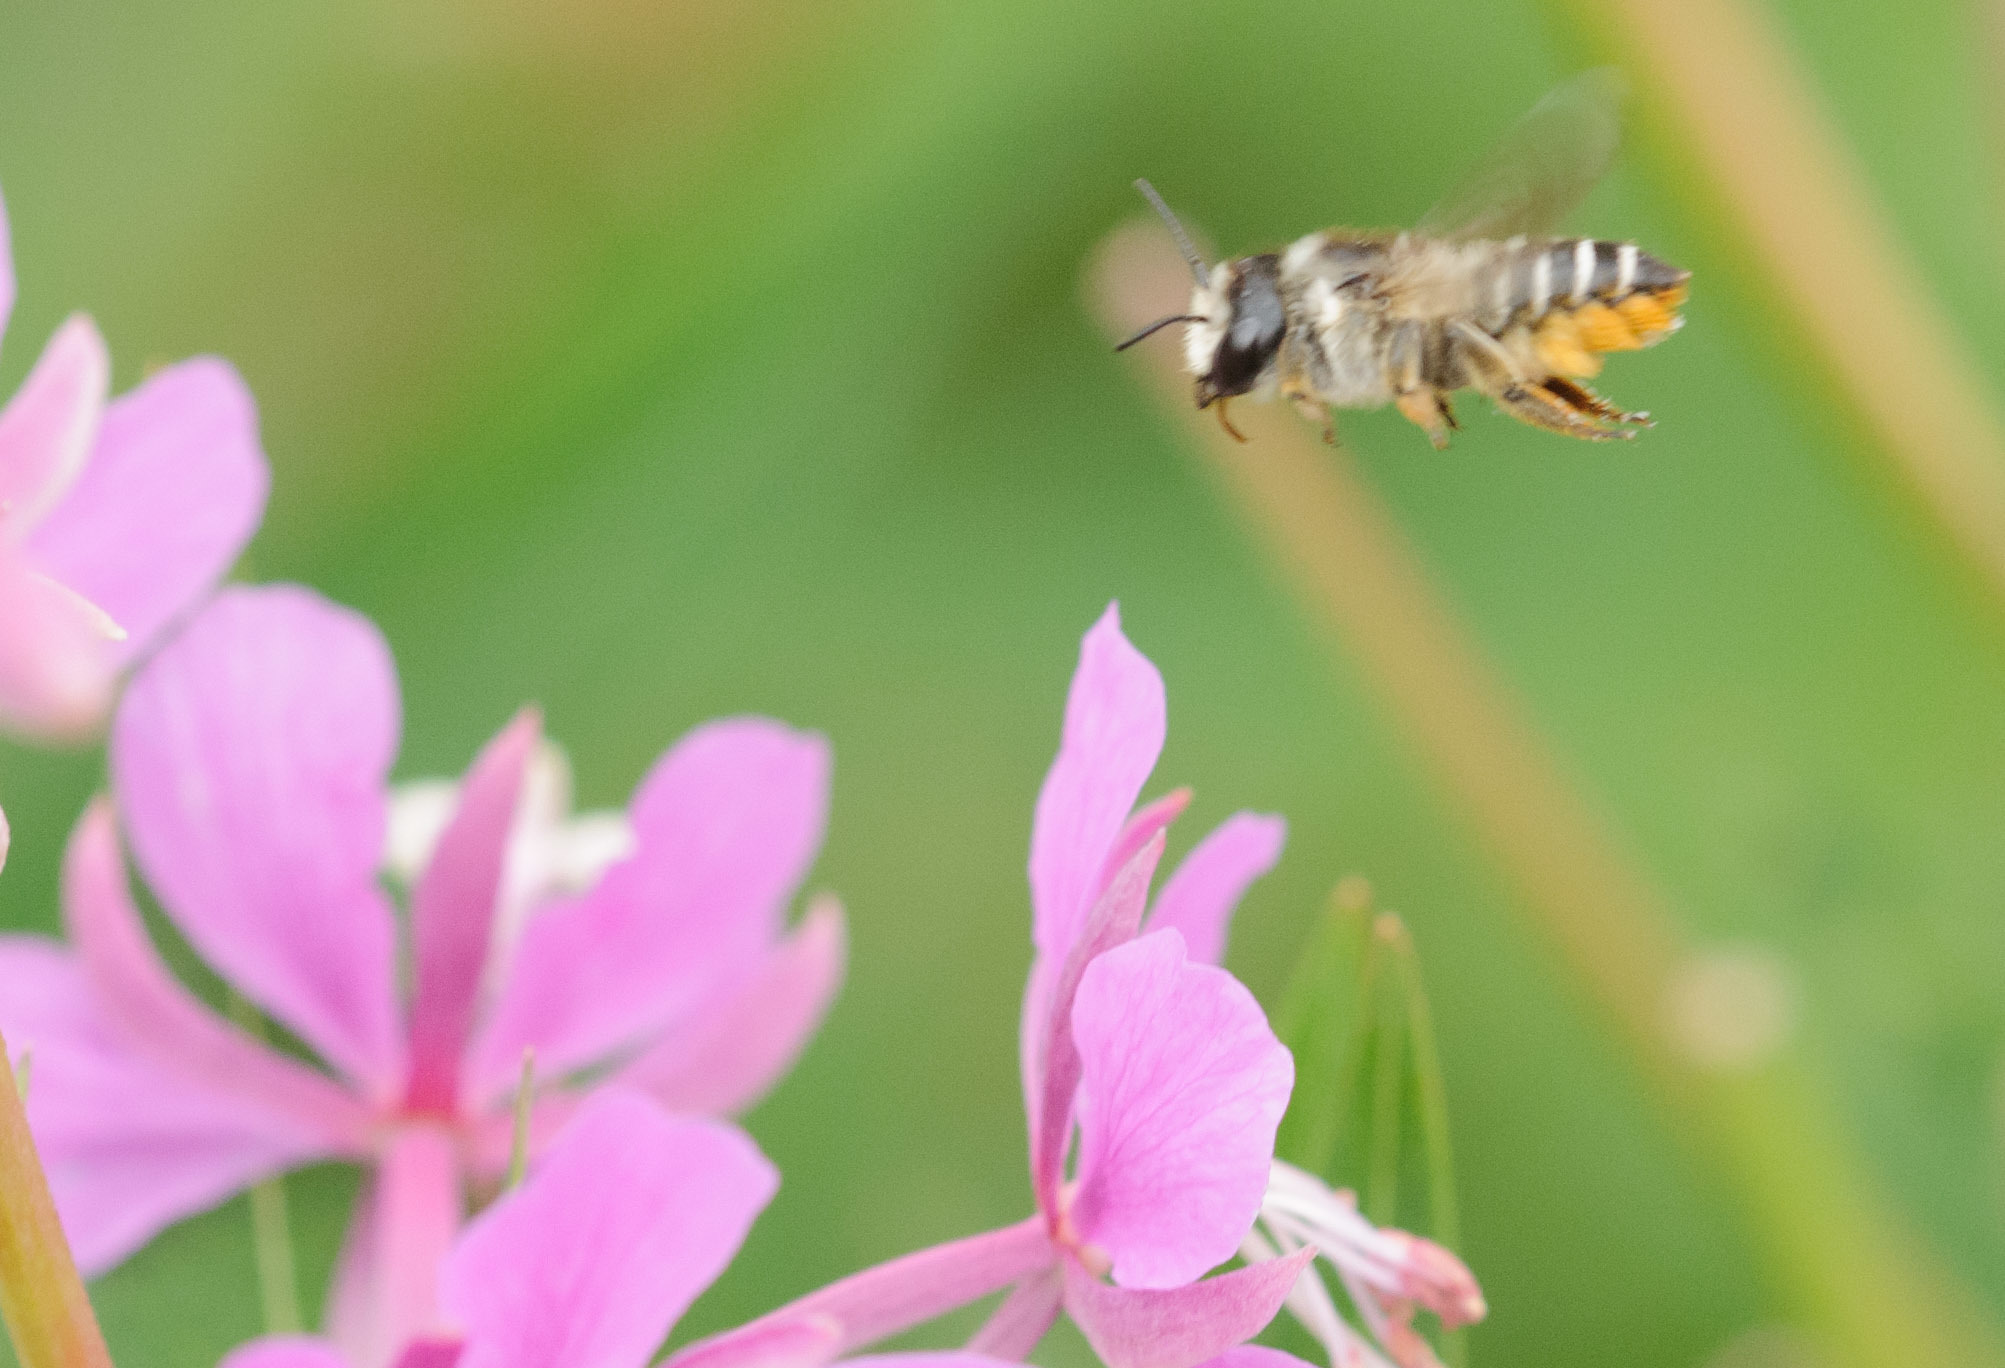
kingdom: Animalia
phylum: Arthropoda
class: Insecta
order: Hymenoptera
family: Megachilidae
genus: Megachile
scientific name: Megachile
